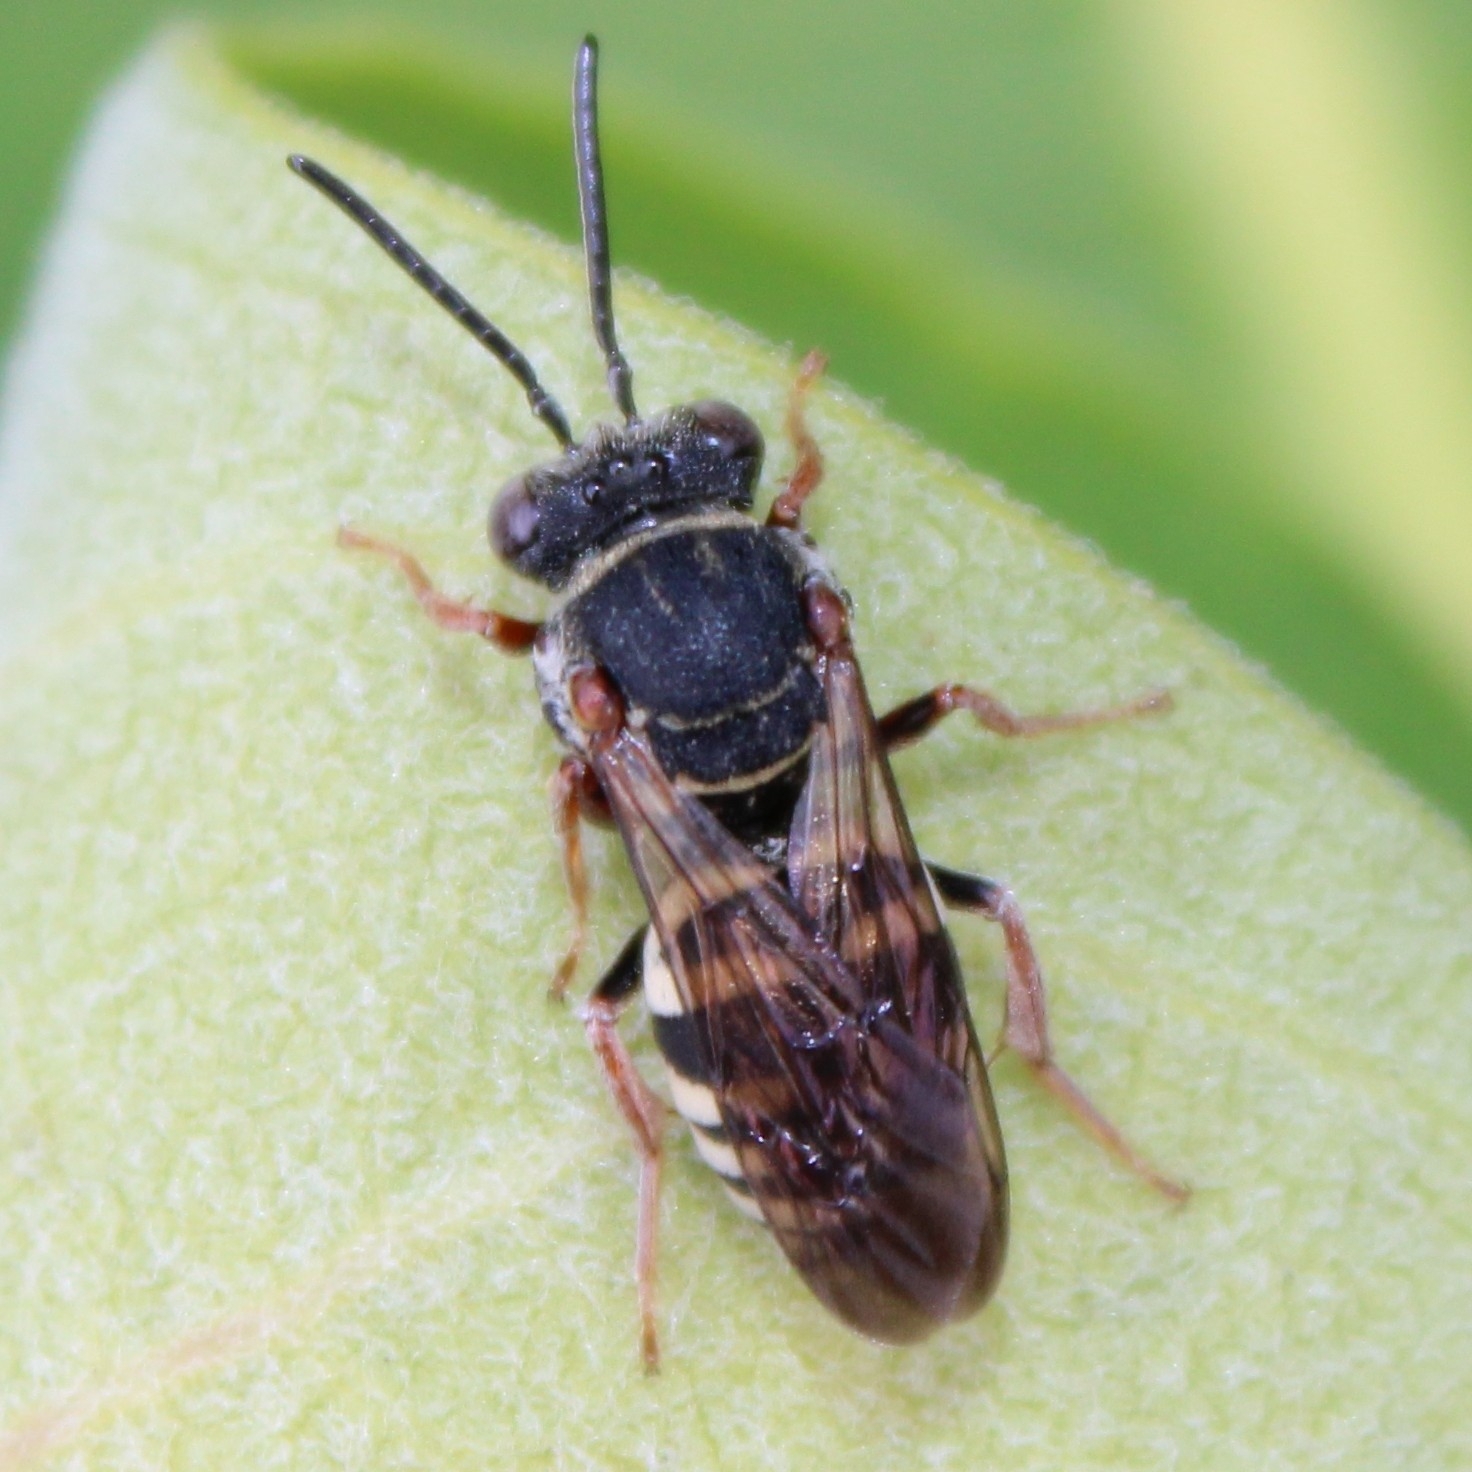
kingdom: Animalia
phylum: Arthropoda
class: Insecta
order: Hymenoptera
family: Apidae
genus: Epeolus
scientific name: Epeolus autumnalis
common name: Autumnal cellophane-cuckoo
